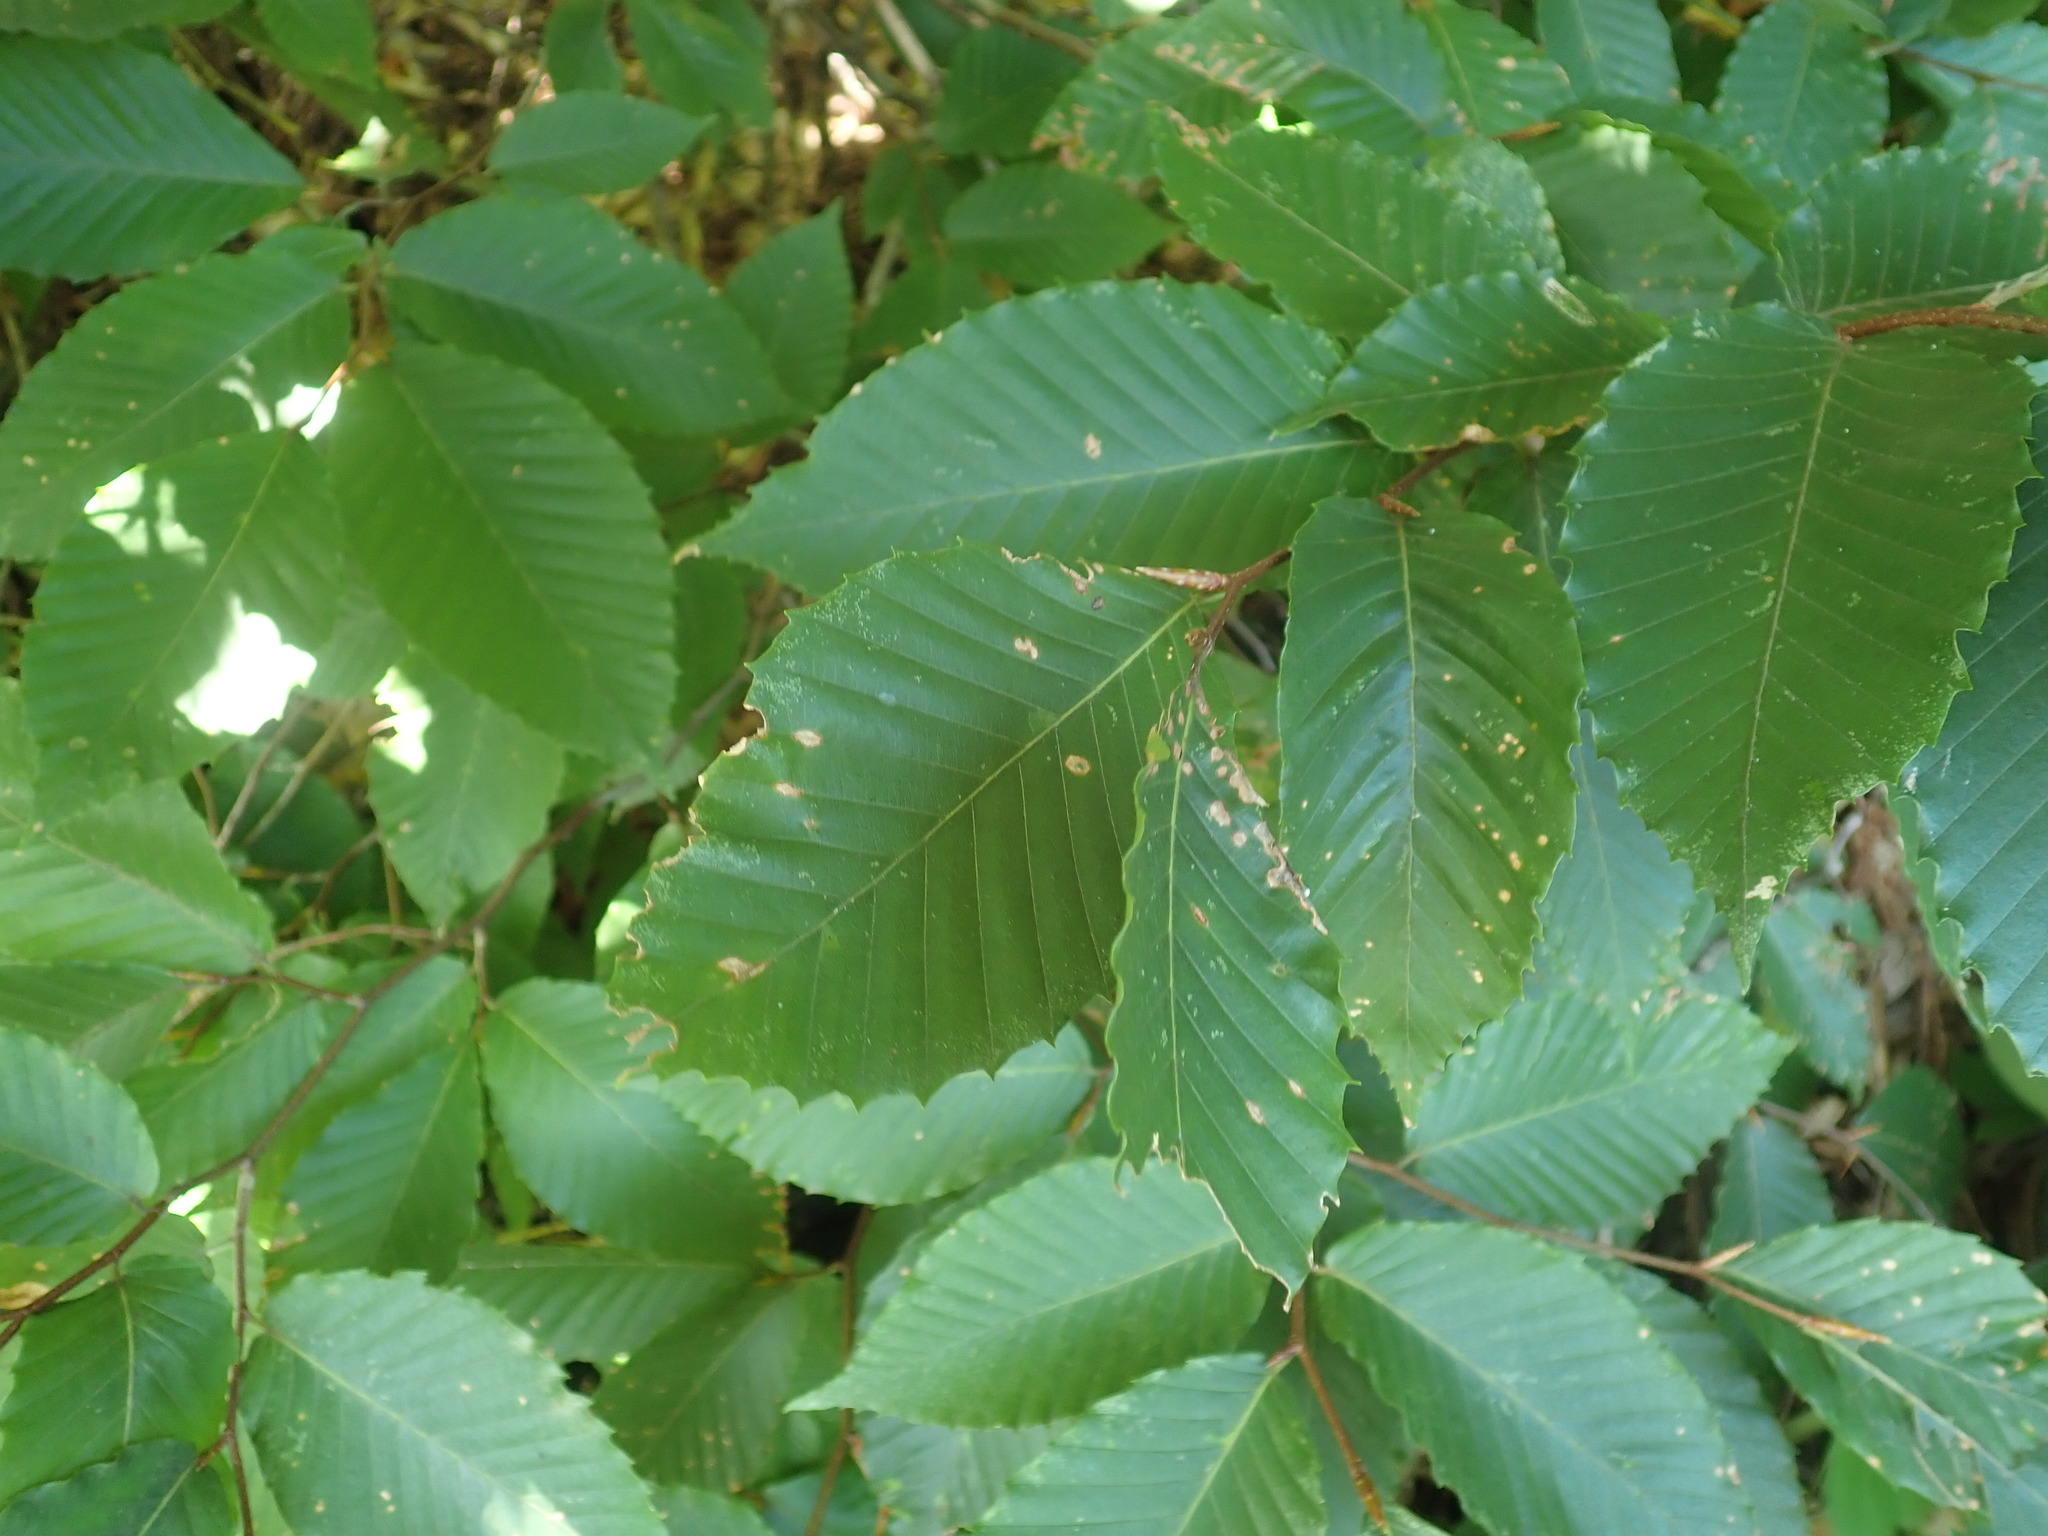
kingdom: Plantae
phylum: Tracheophyta
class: Magnoliopsida
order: Fagales
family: Fagaceae
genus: Fagus
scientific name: Fagus grandifolia
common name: American beech
